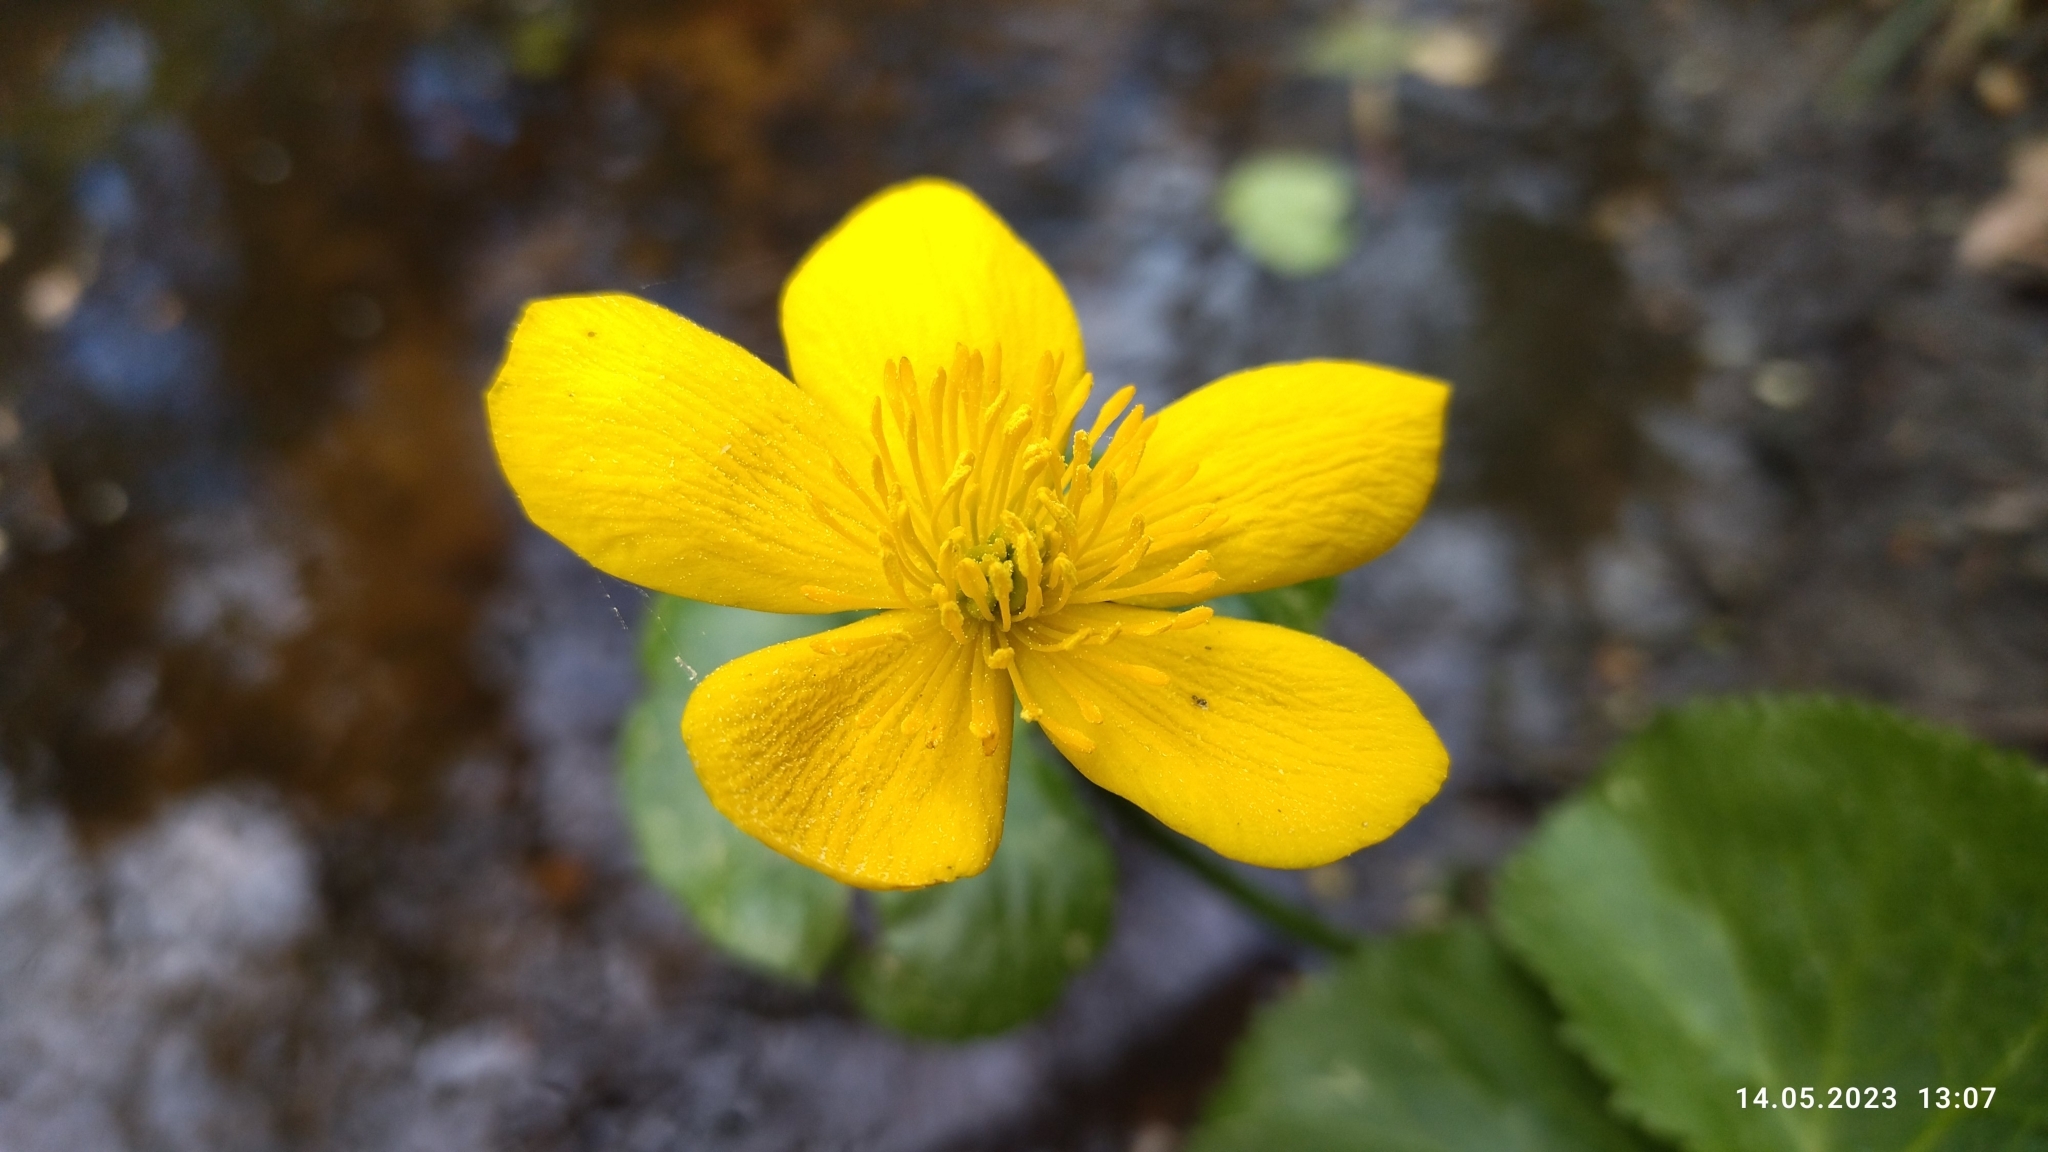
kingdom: Plantae
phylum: Tracheophyta
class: Magnoliopsida
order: Ranunculales
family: Ranunculaceae
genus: Caltha
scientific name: Caltha palustris
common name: Marsh marigold
